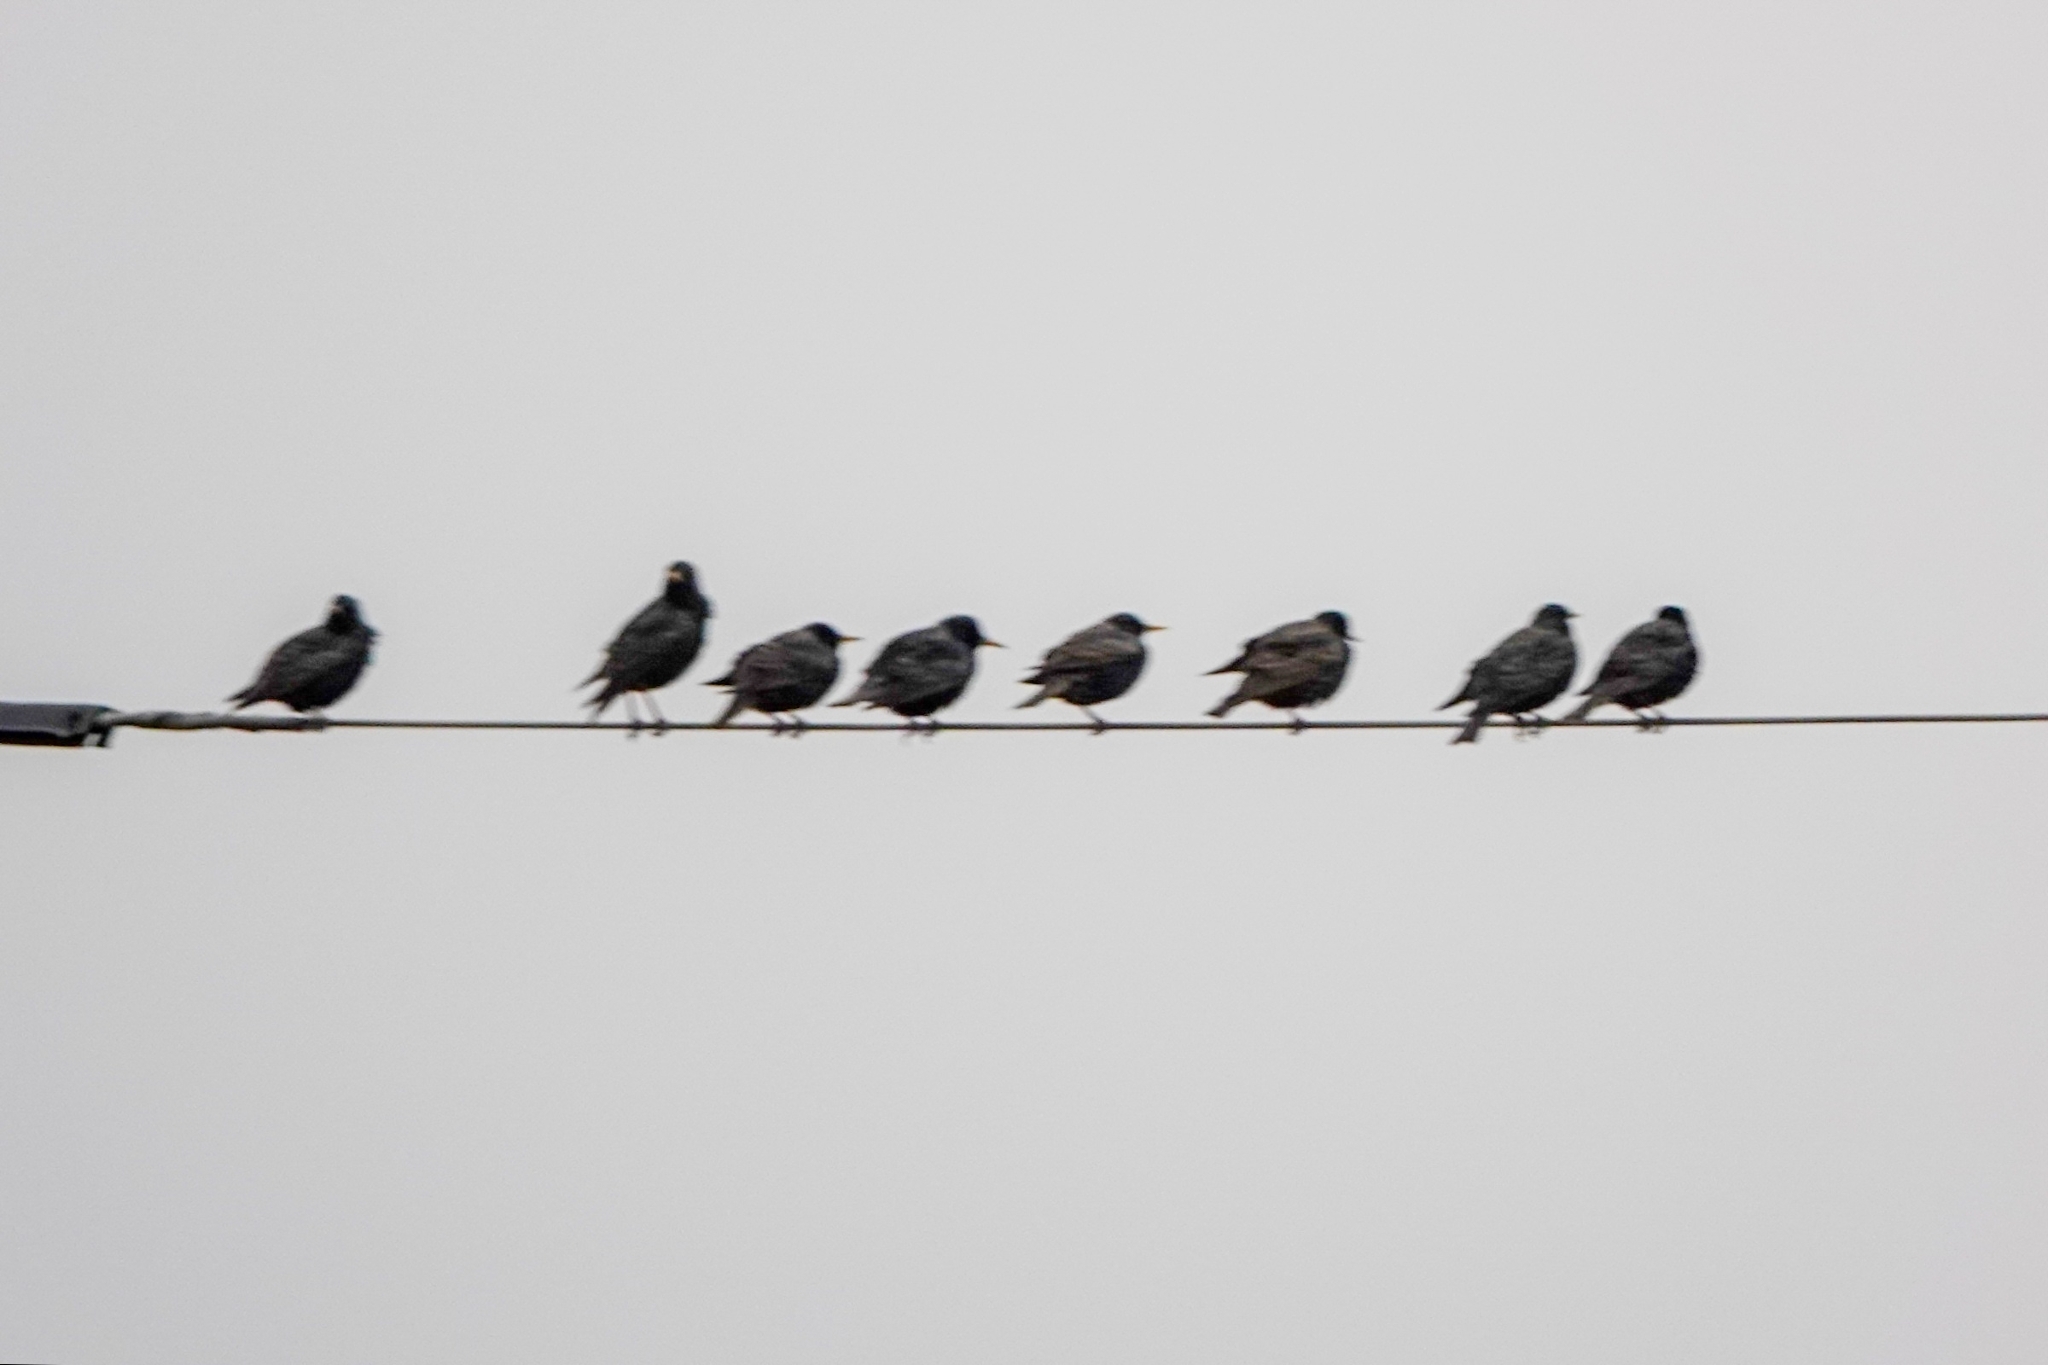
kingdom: Animalia
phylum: Chordata
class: Aves
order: Passeriformes
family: Sturnidae
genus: Sturnus
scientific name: Sturnus vulgaris
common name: Common starling
